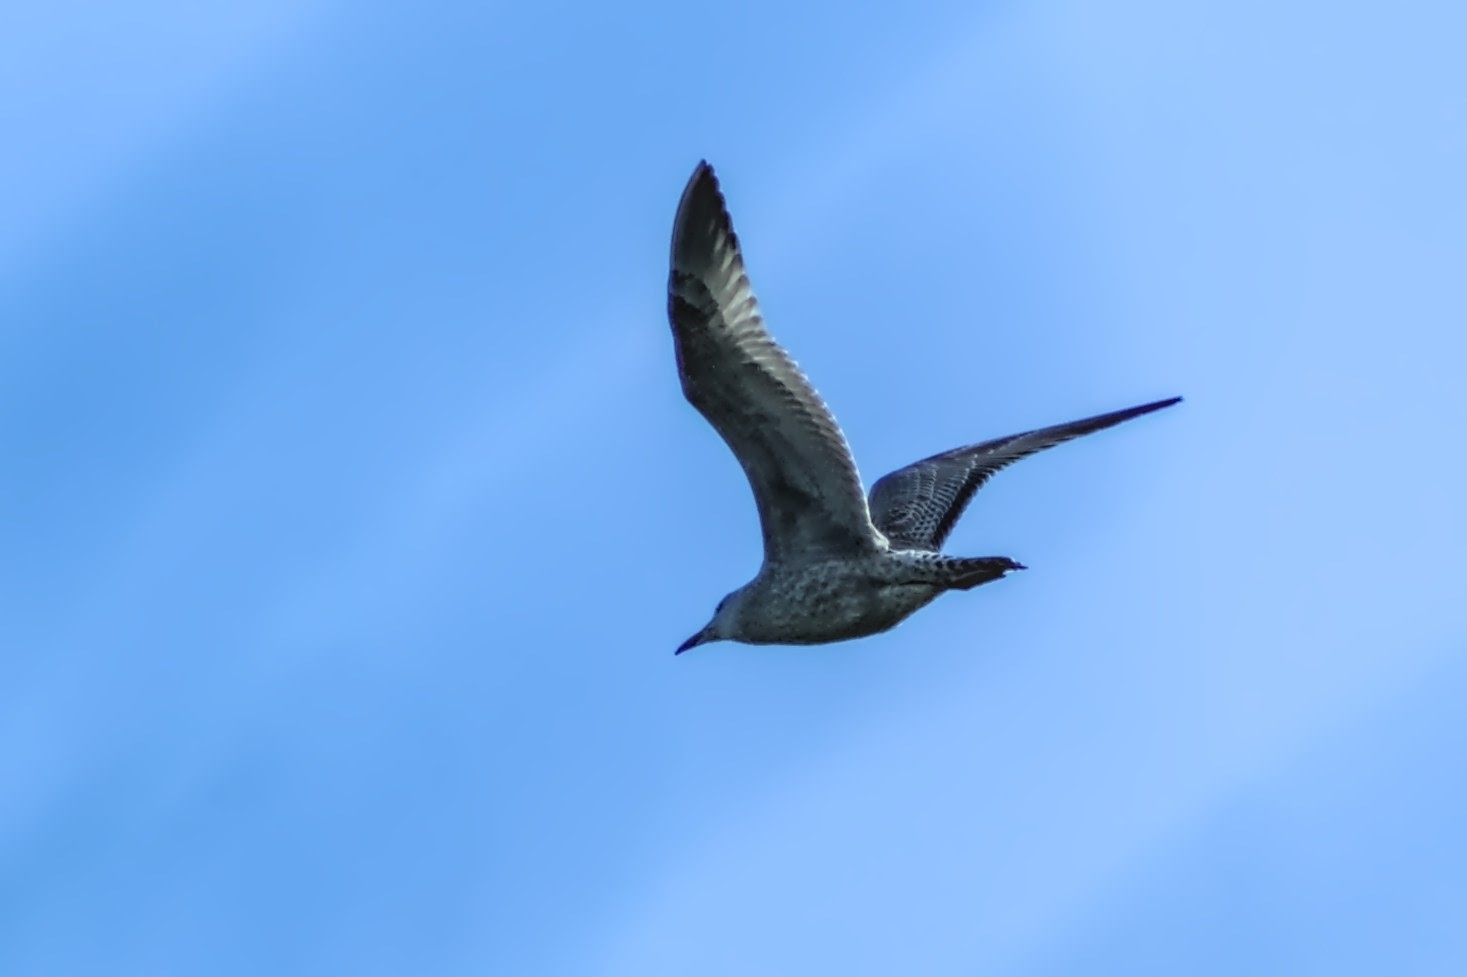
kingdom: Animalia
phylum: Chordata
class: Aves
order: Charadriiformes
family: Laridae
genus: Larus
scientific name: Larus fuscus
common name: Lesser black-backed gull
